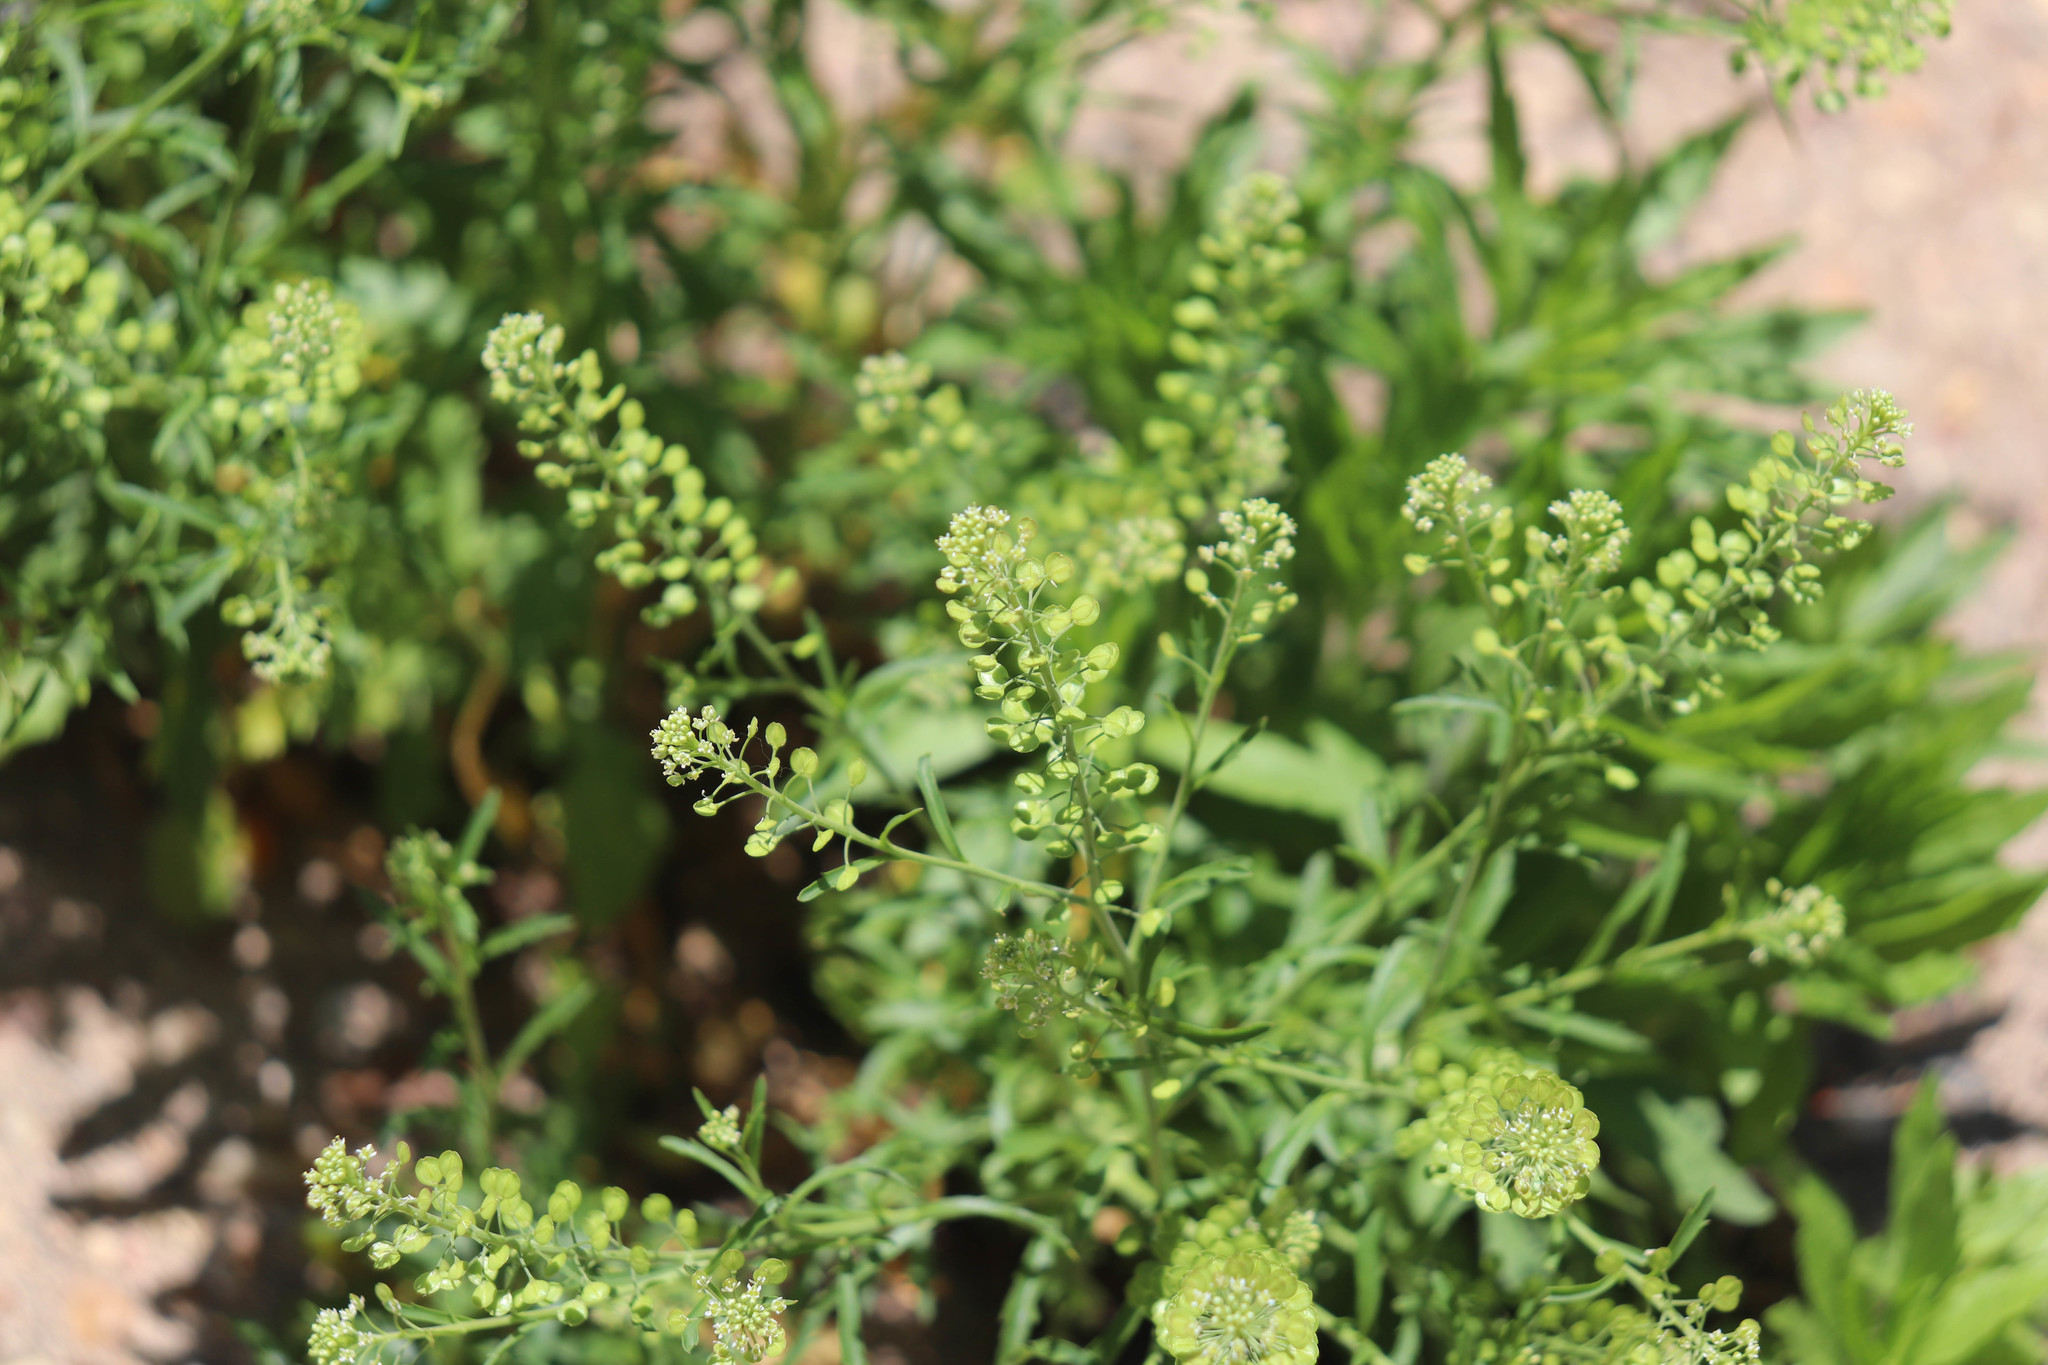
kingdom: Plantae
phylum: Tracheophyta
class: Magnoliopsida
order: Brassicales
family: Brassicaceae
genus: Lepidium
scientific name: Lepidium virginicum
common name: Least pepperwort
